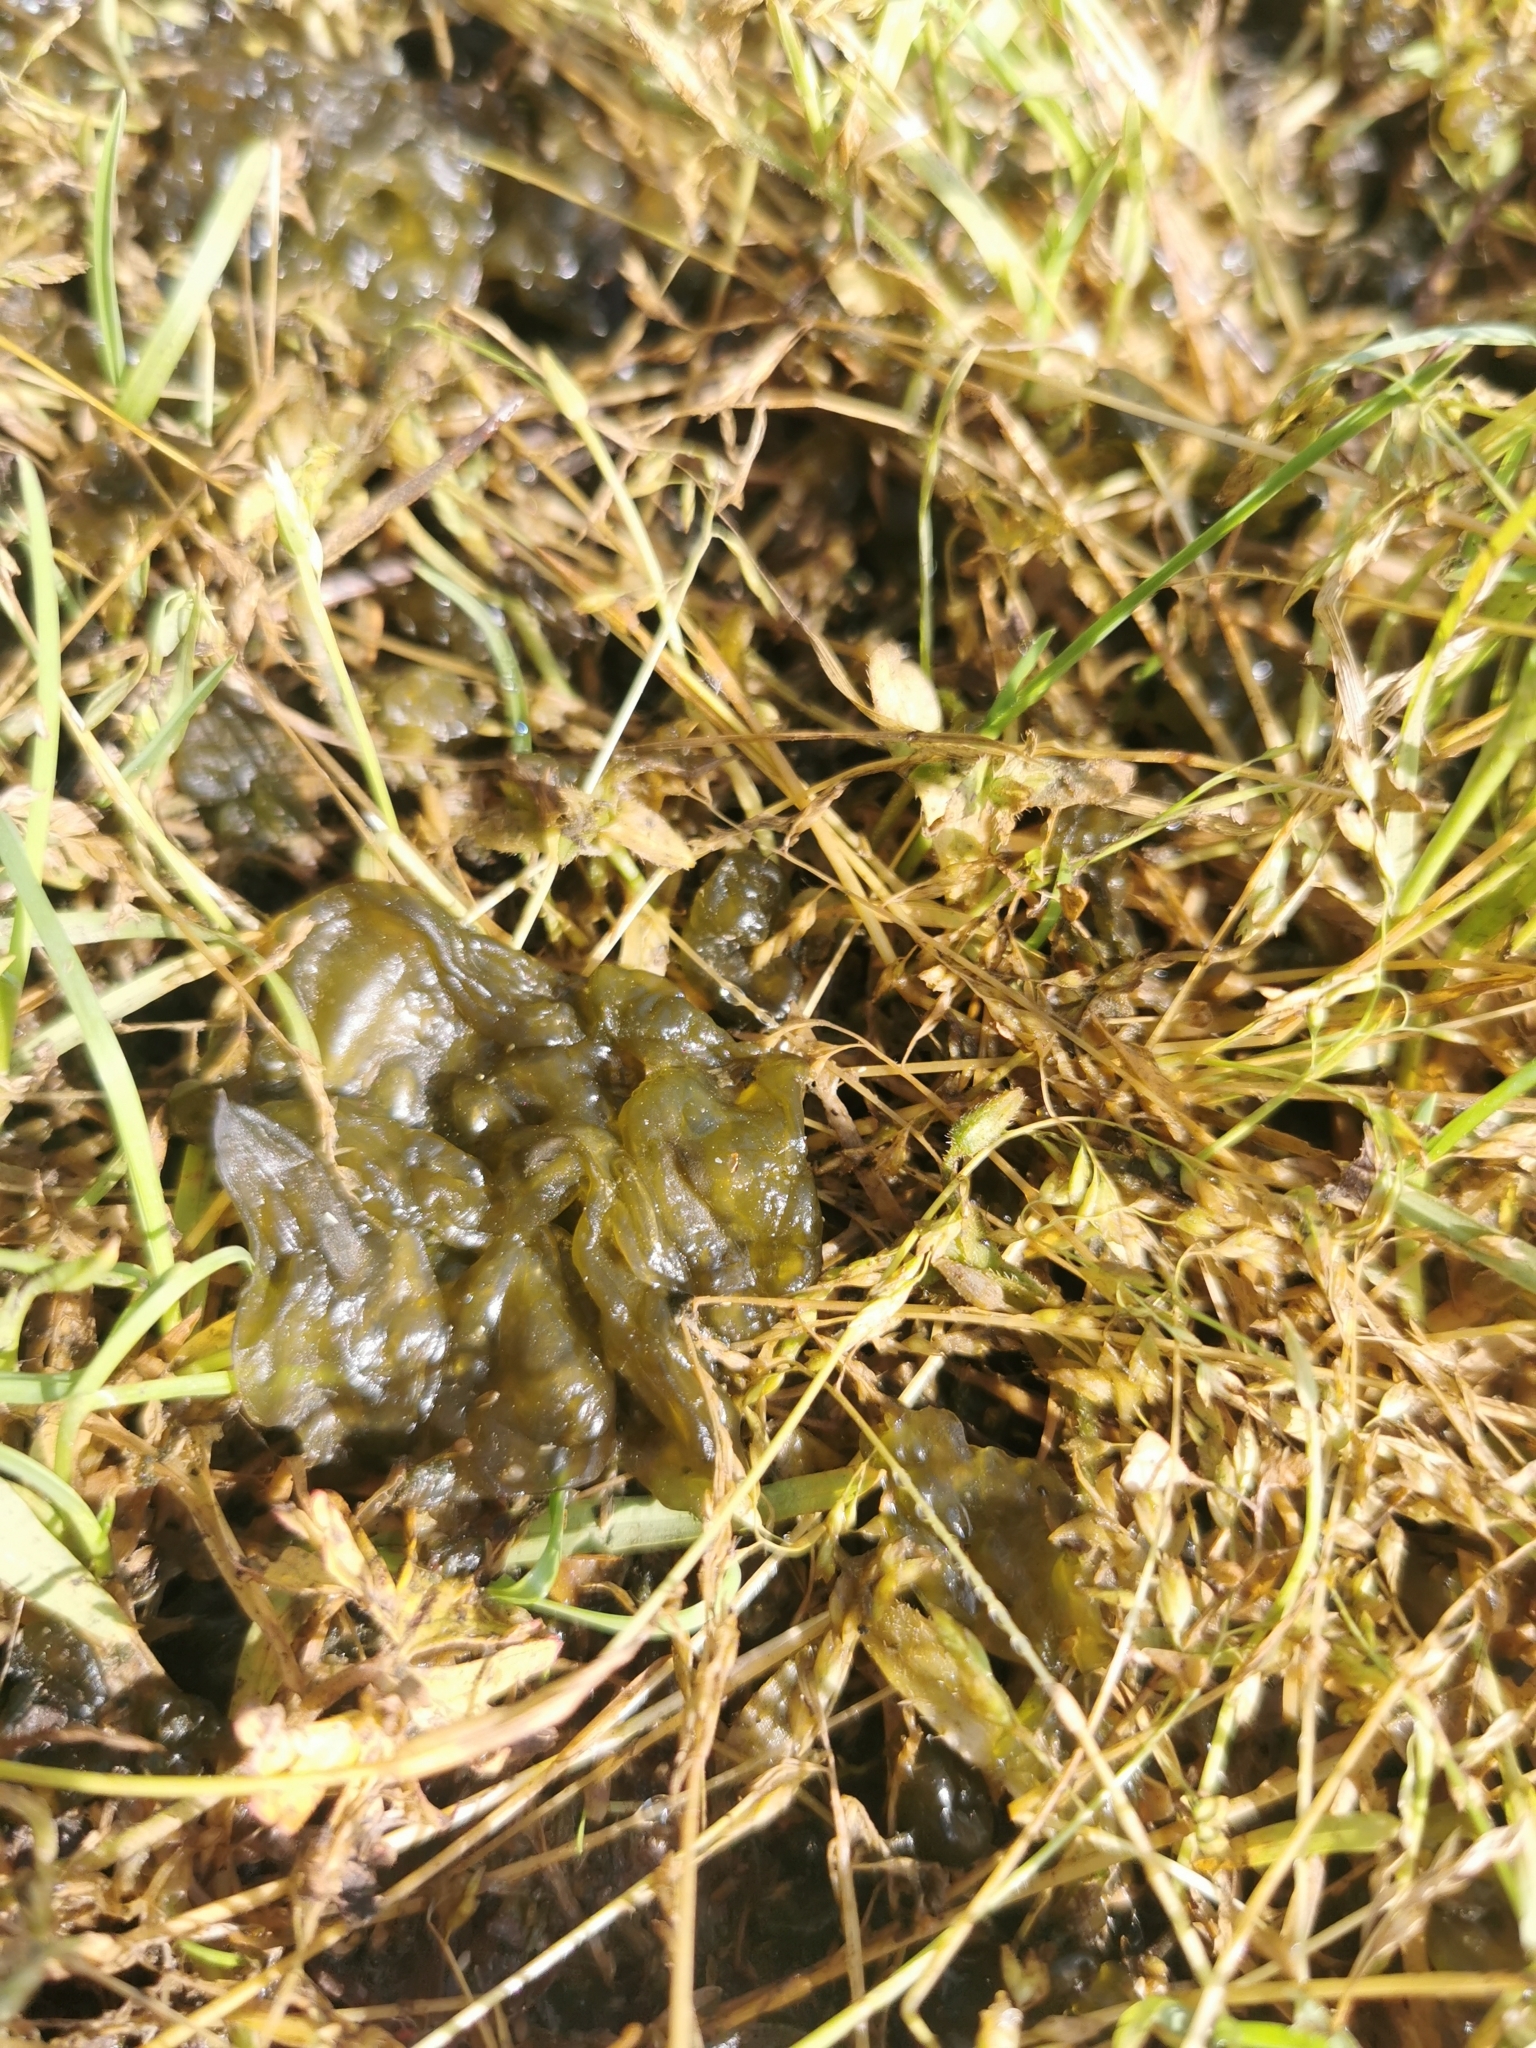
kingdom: Bacteria
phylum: Cyanobacteria
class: Cyanobacteriia
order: Cyanobacteriales
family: Nostocaceae
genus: Nostoc
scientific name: Nostoc commune
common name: Star jelly
